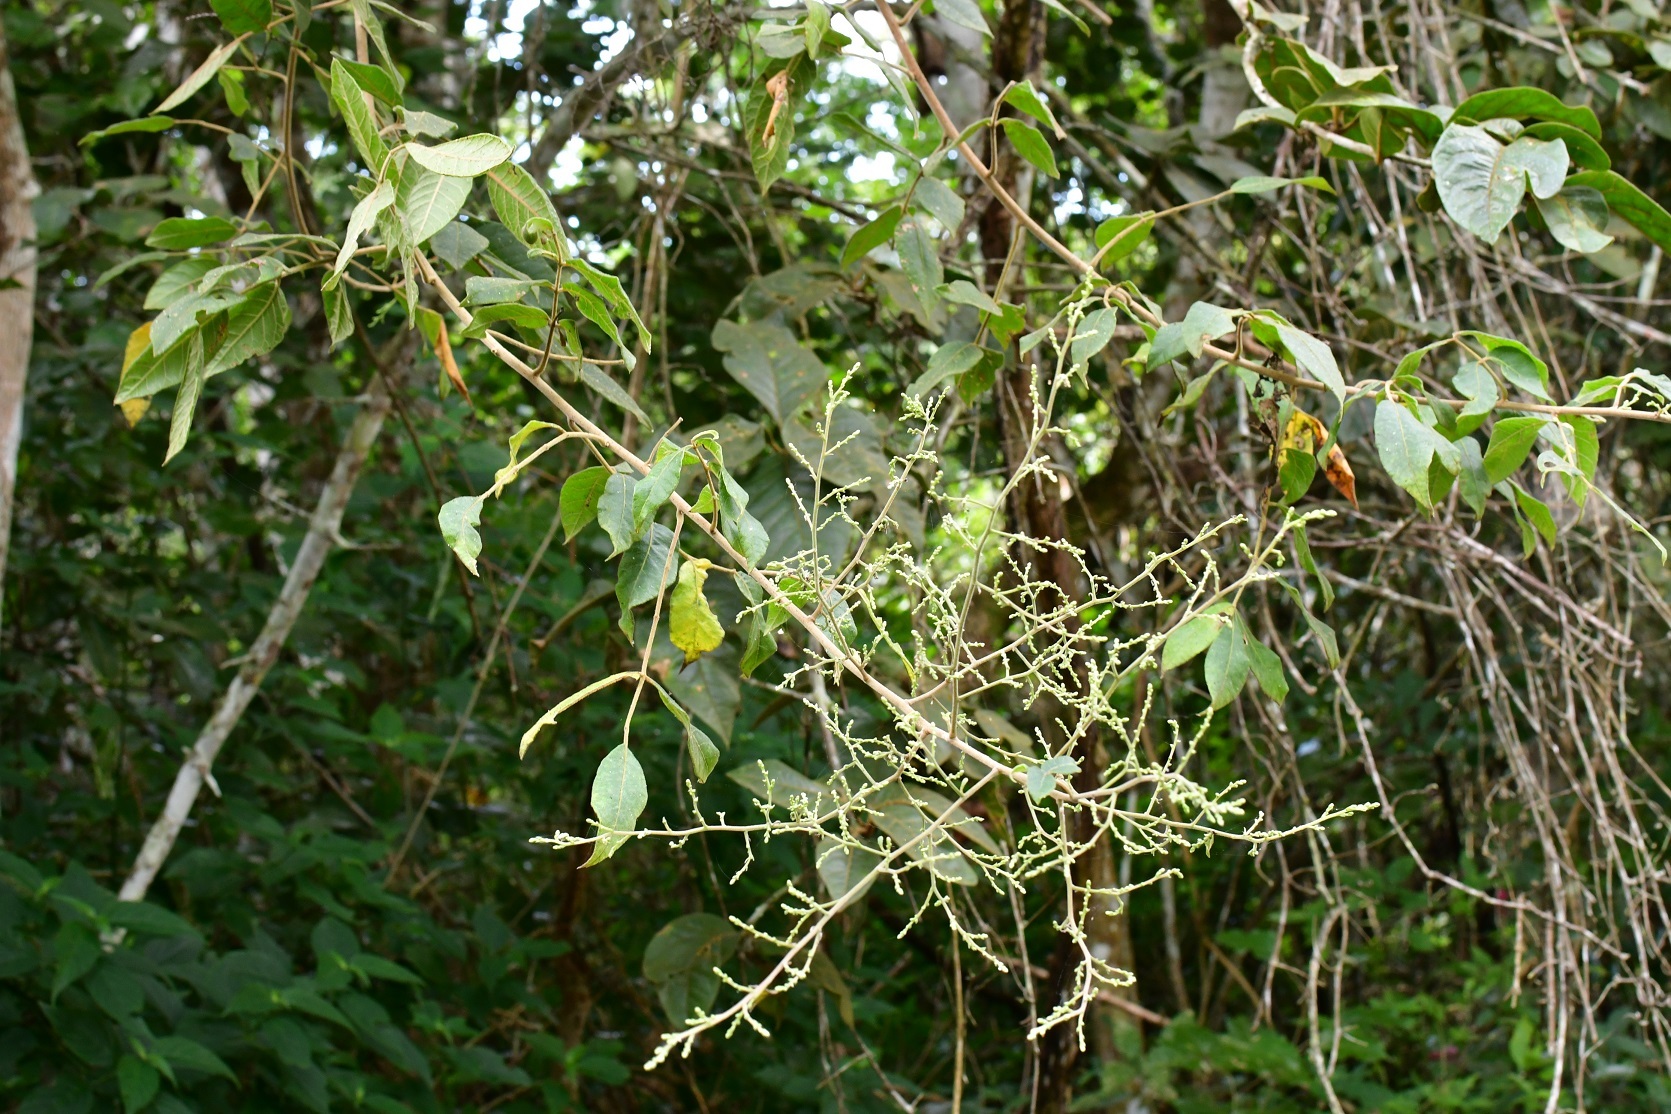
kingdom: Plantae
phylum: Tracheophyta
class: Magnoliopsida
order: Sapindales
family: Anacardiaceae
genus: Rhus
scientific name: Rhus terebinthifolia
